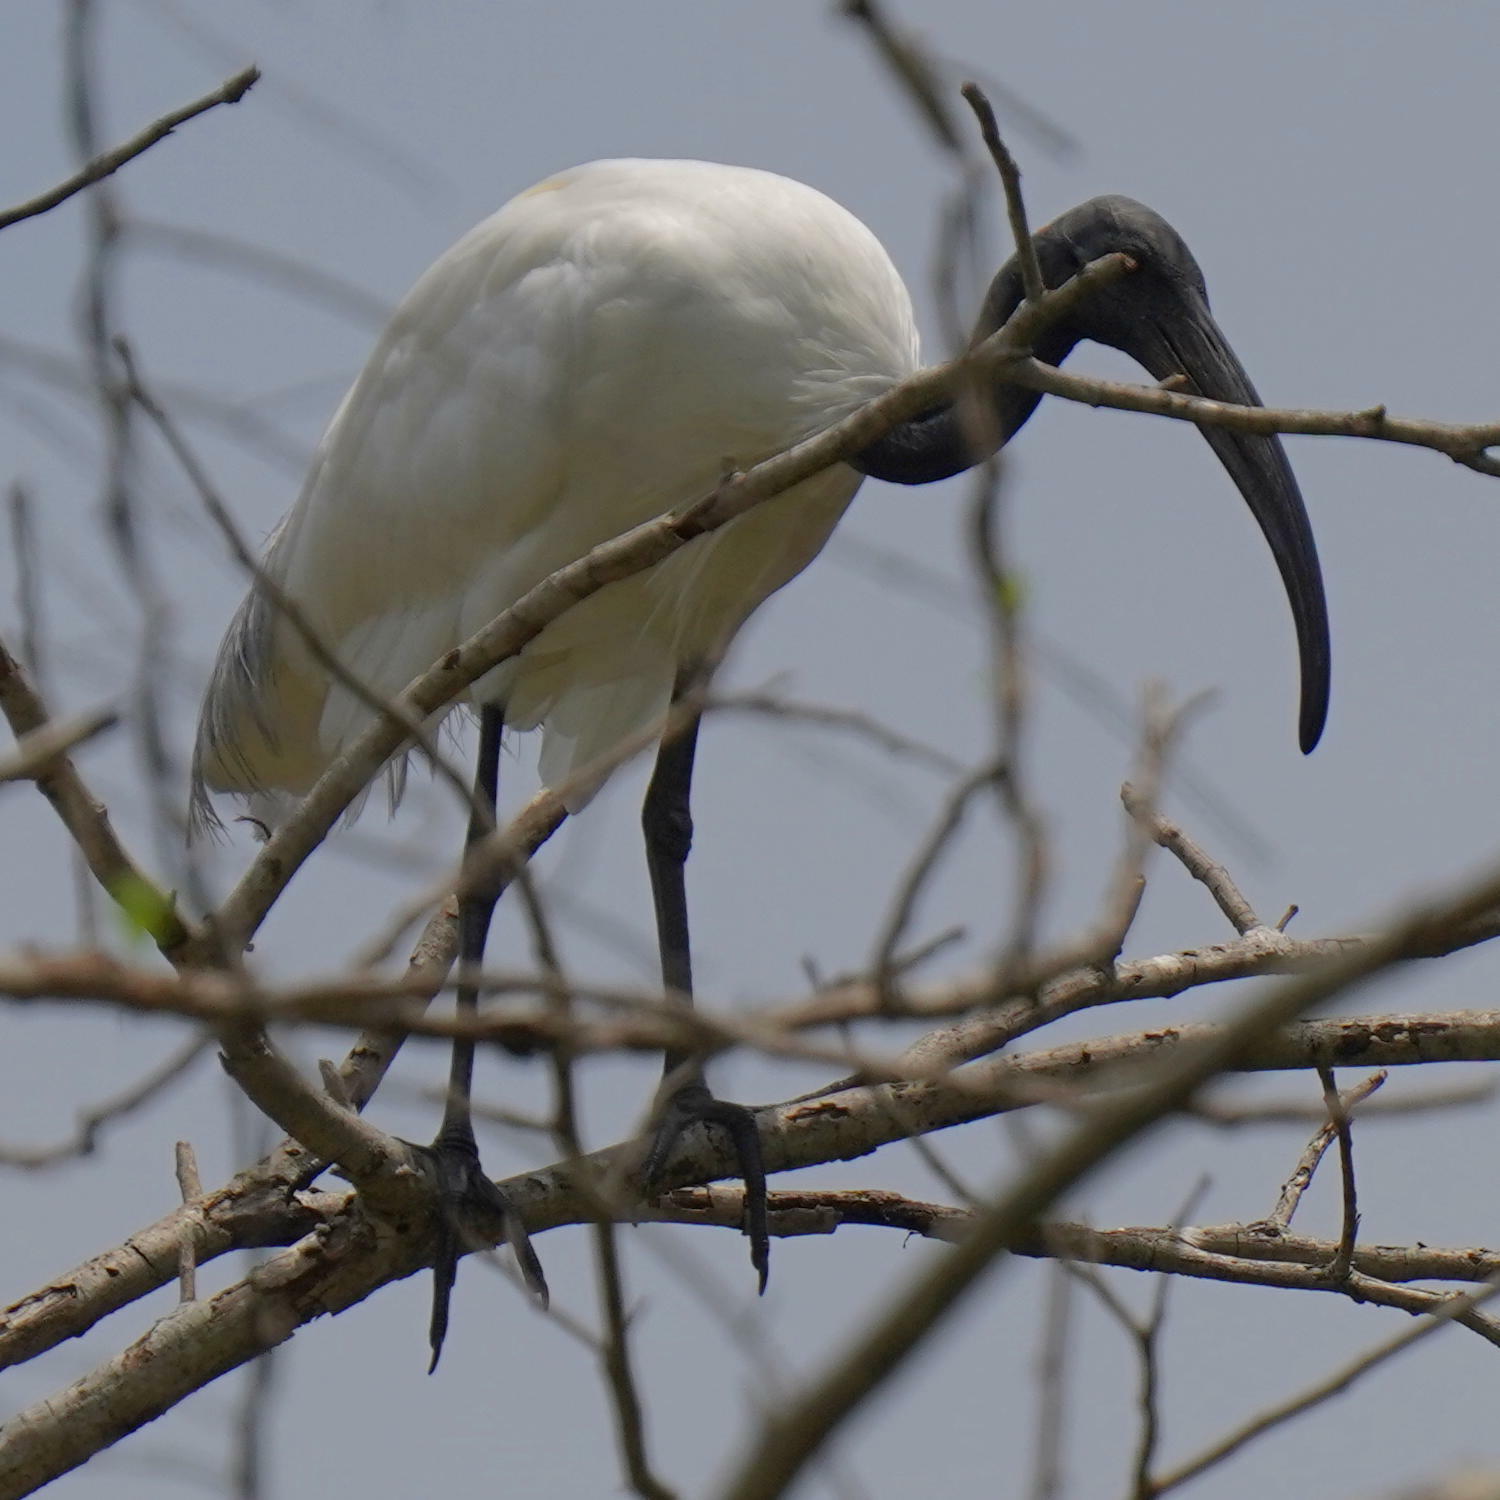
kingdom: Animalia
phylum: Chordata
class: Aves
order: Pelecaniformes
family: Threskiornithidae
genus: Threskiornis
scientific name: Threskiornis melanocephalus
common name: Black-headed ibis
